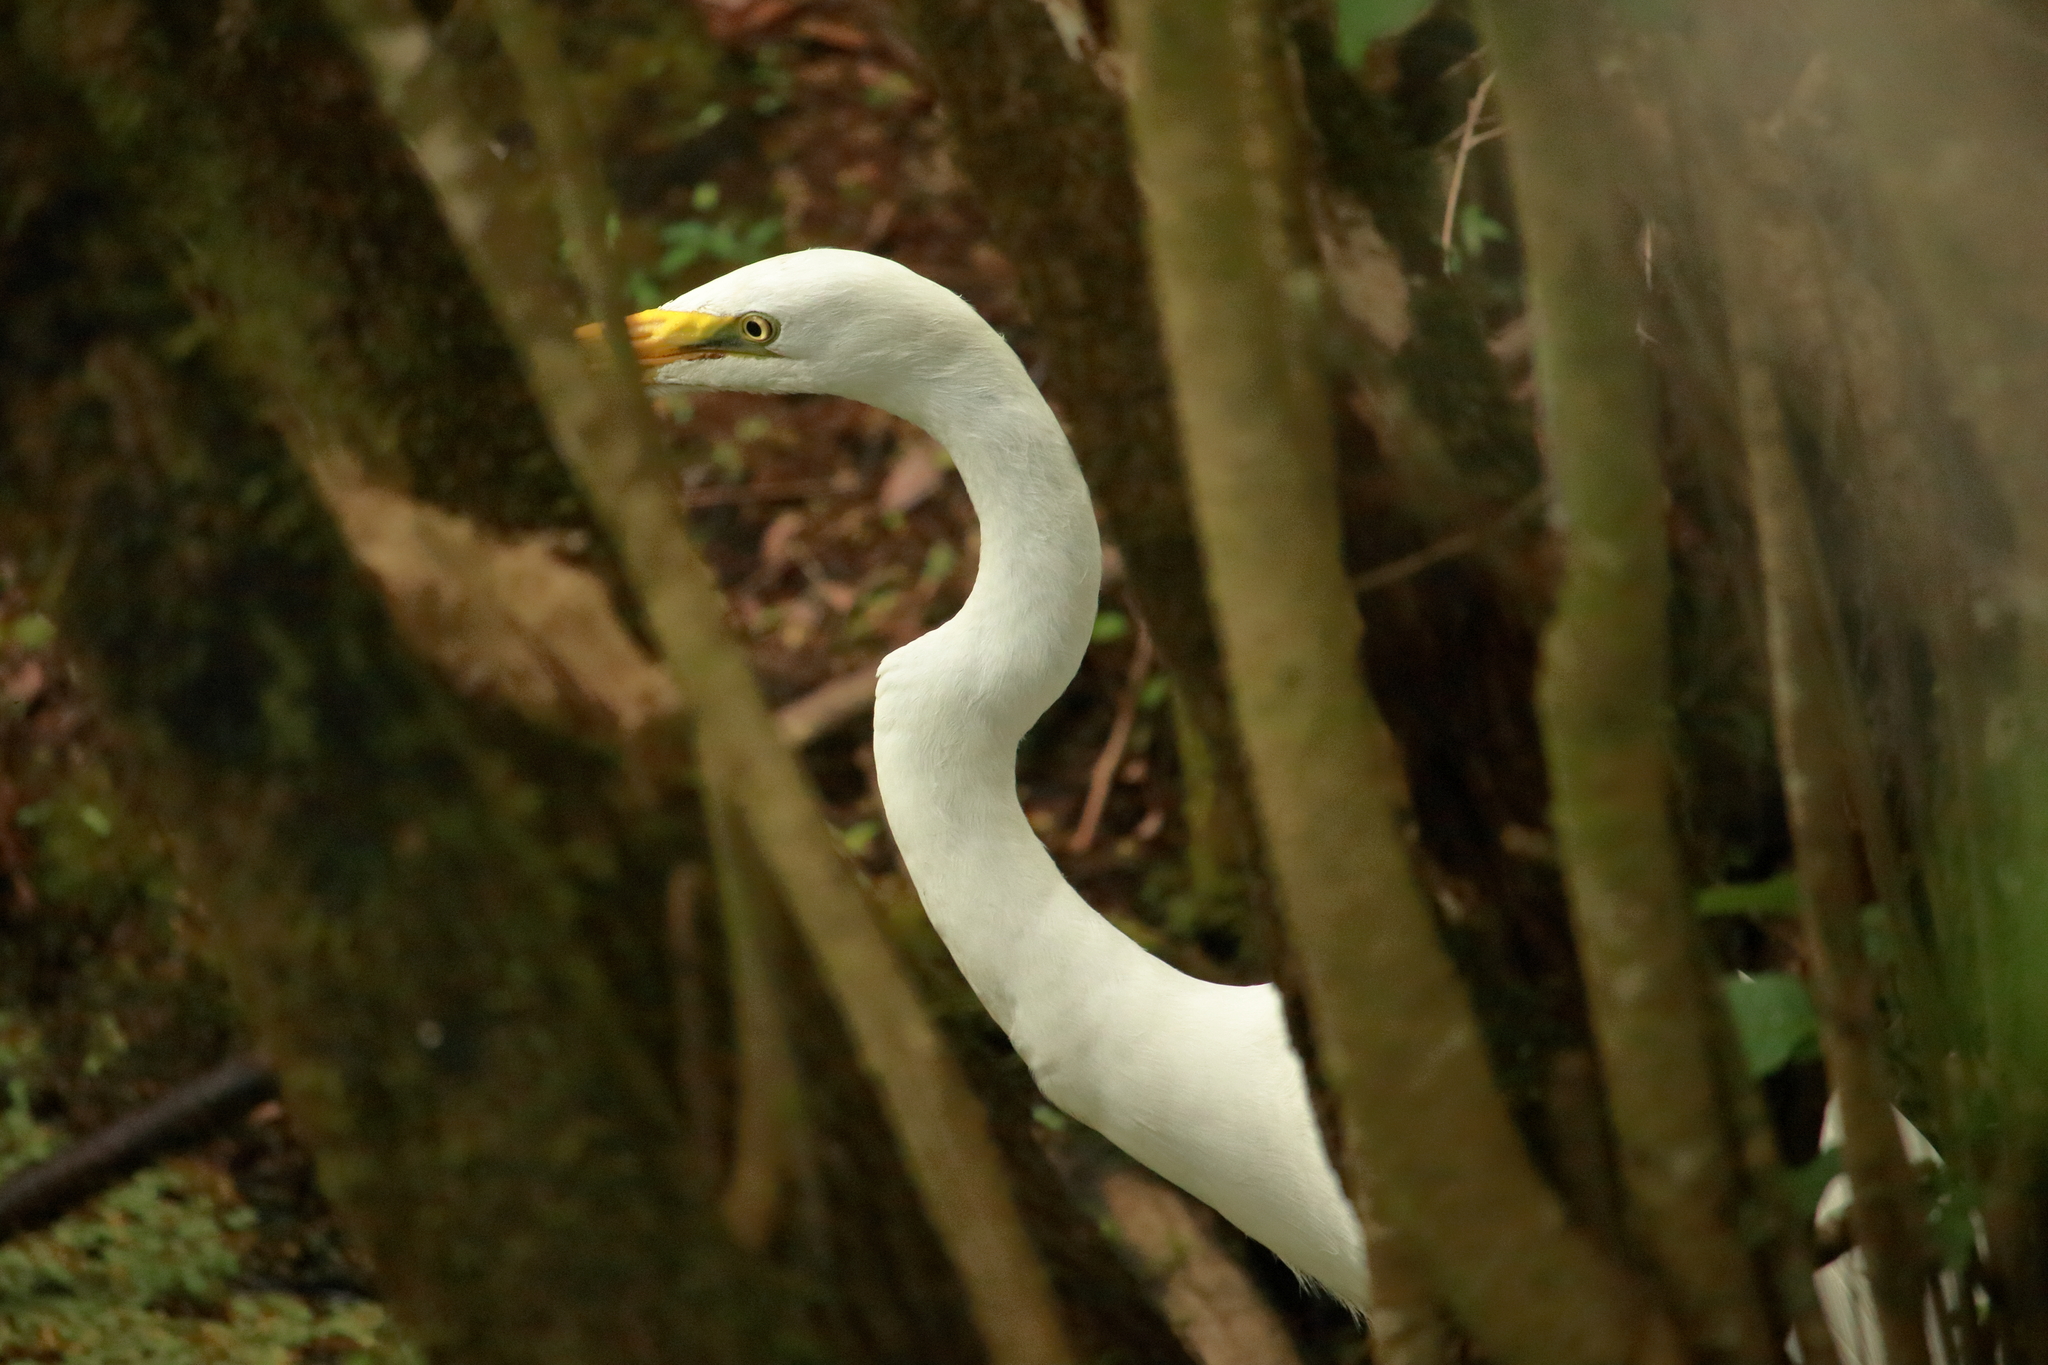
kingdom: Animalia
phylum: Chordata
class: Aves
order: Pelecaniformes
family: Ardeidae
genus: Ardea
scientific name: Ardea alba
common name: Great egret
